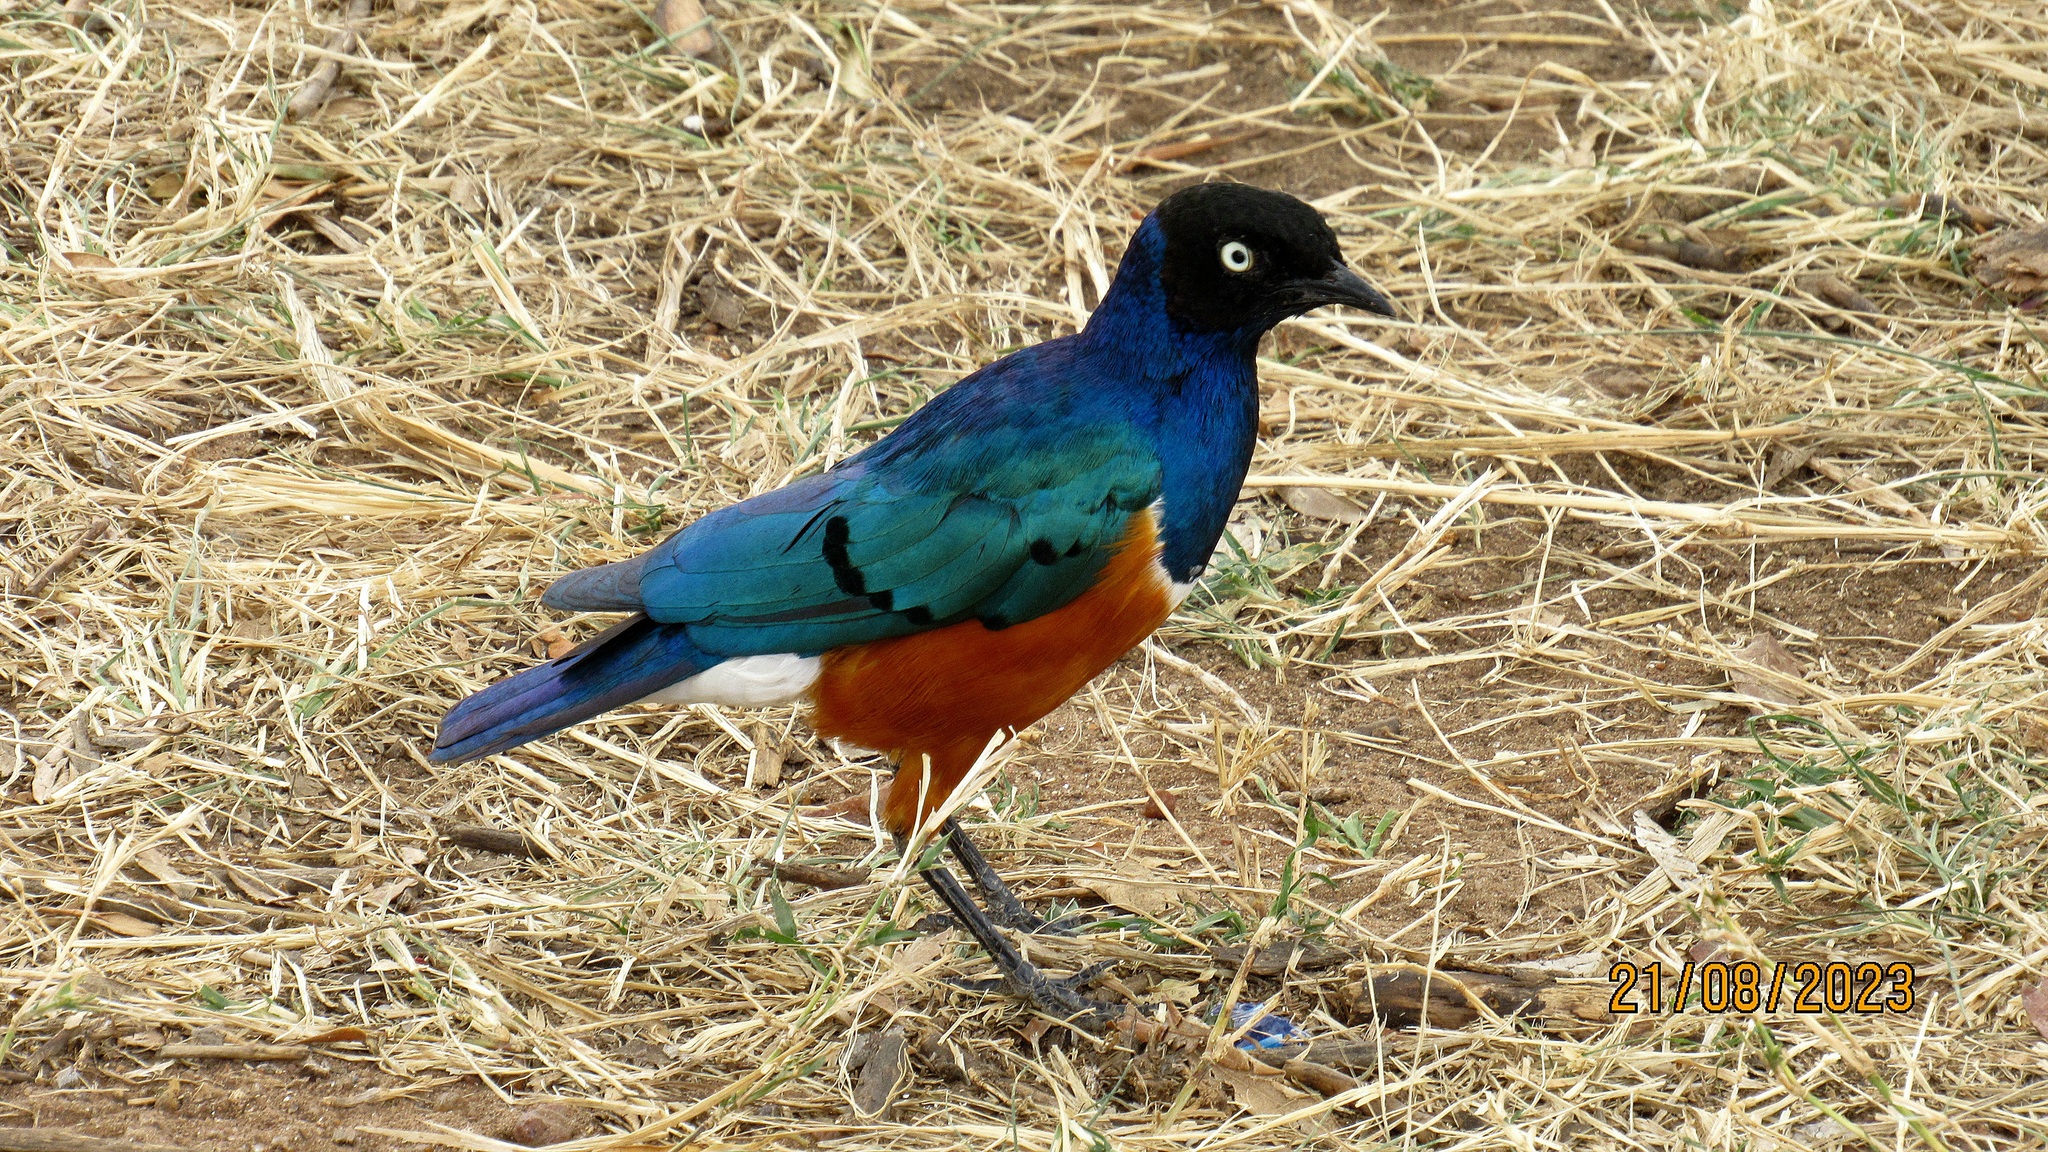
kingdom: Animalia
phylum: Chordata
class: Aves
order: Passeriformes
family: Sturnidae
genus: Lamprotornis
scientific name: Lamprotornis superbus
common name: Superb starling
